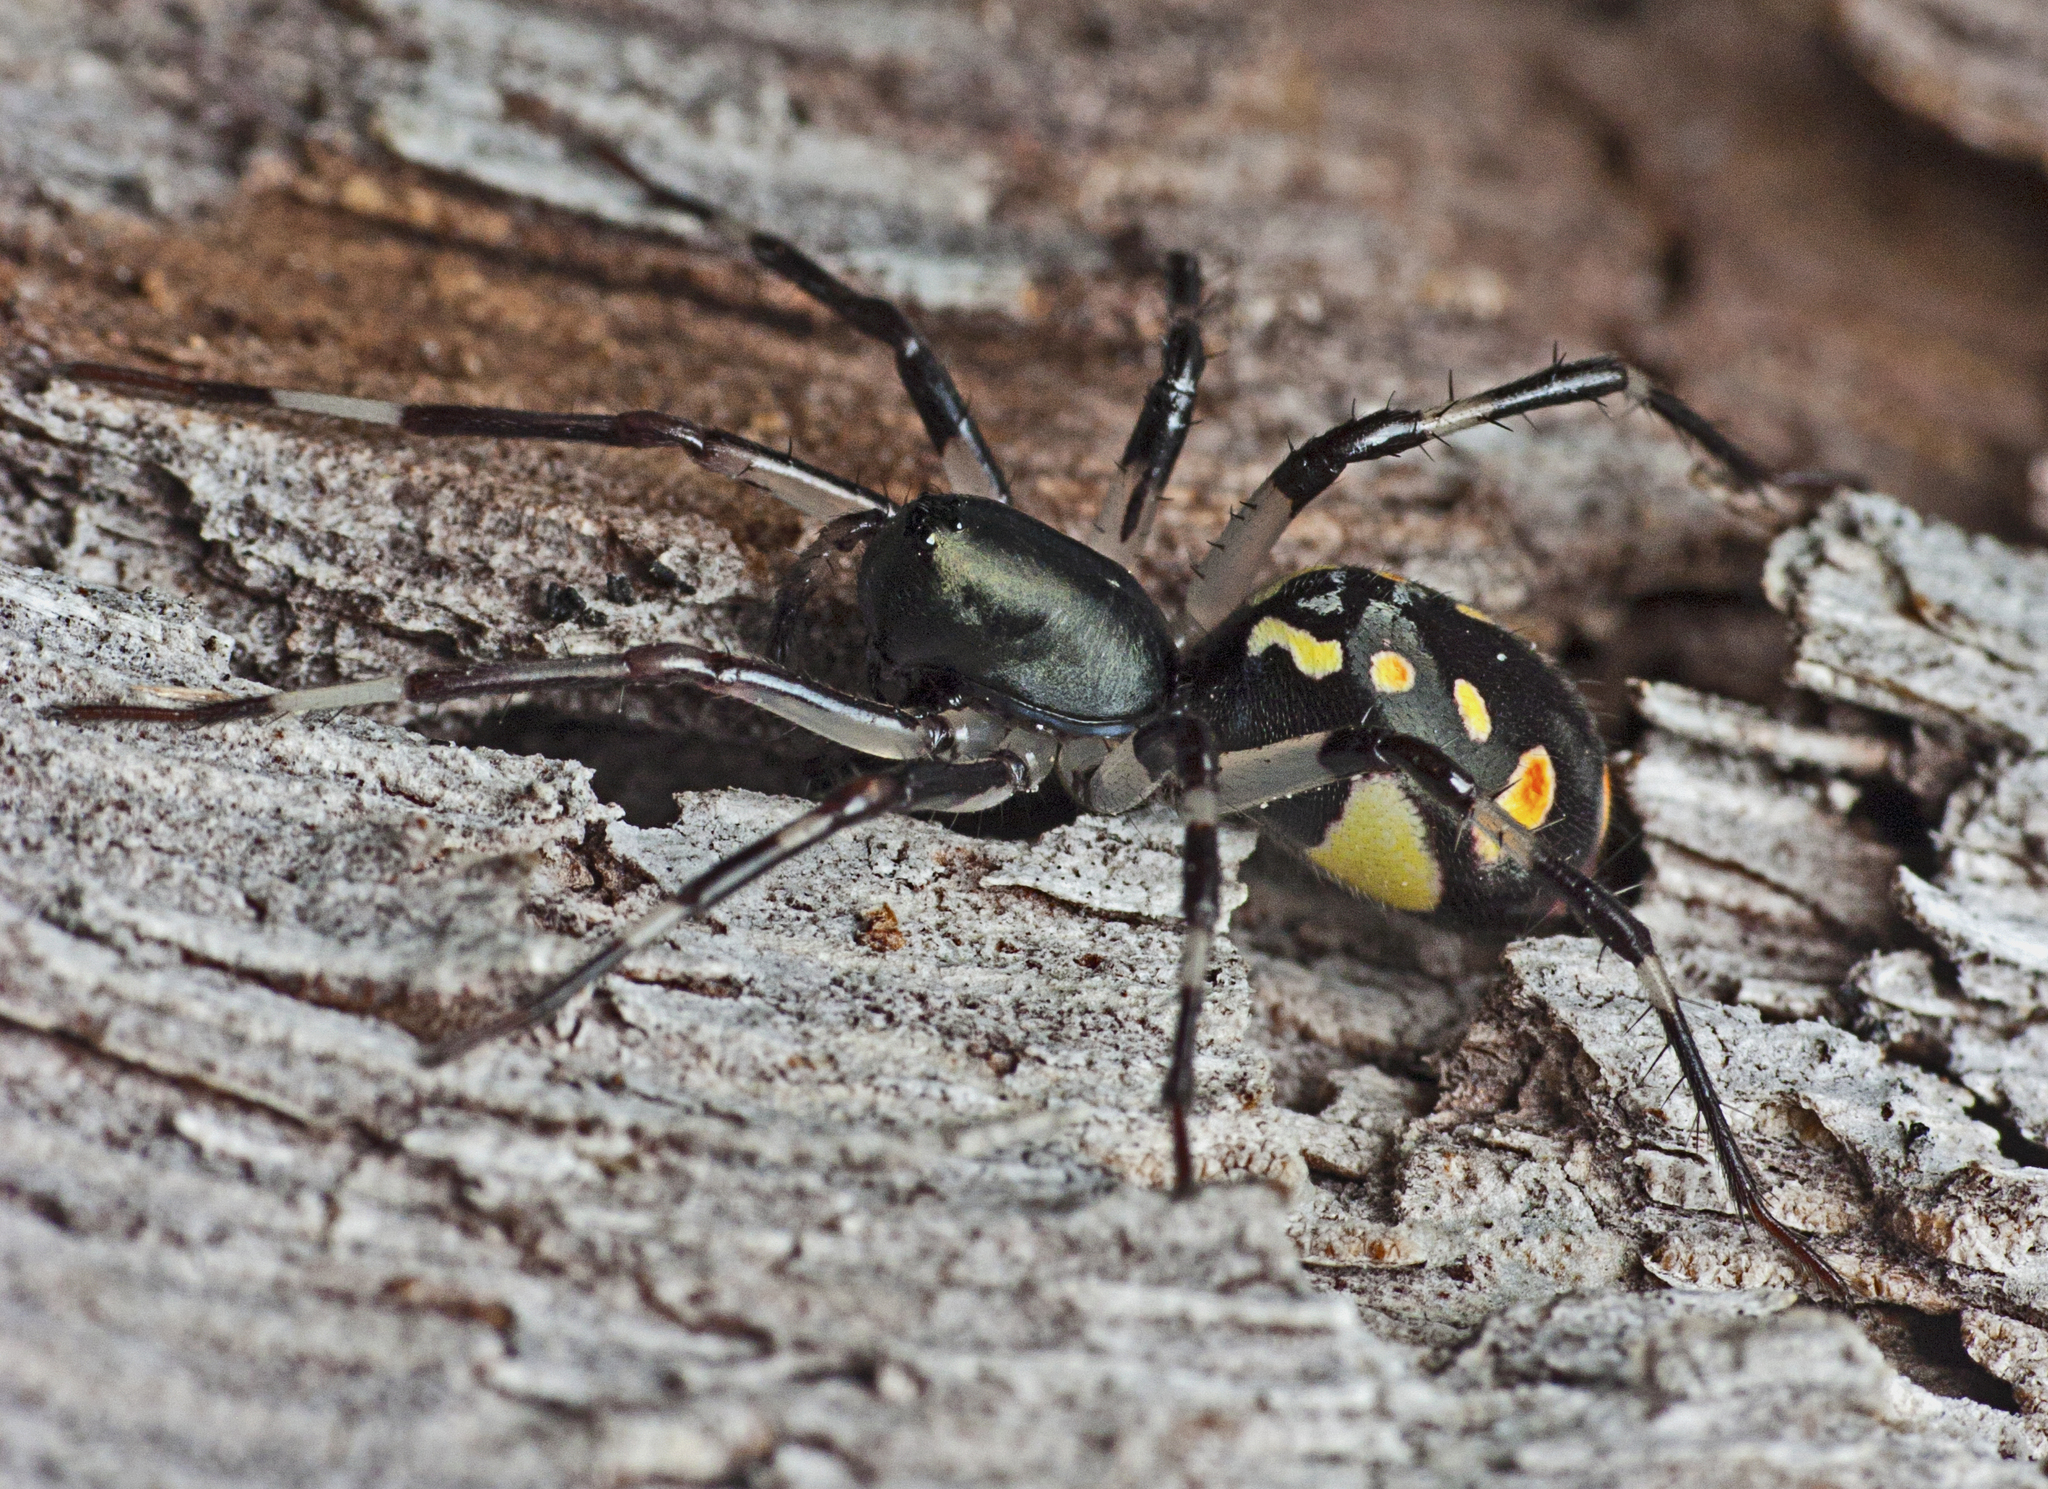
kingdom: Animalia
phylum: Arthropoda
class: Arachnida
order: Araneae
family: Zodariidae
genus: Subasteron
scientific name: Subasteron daviesae
